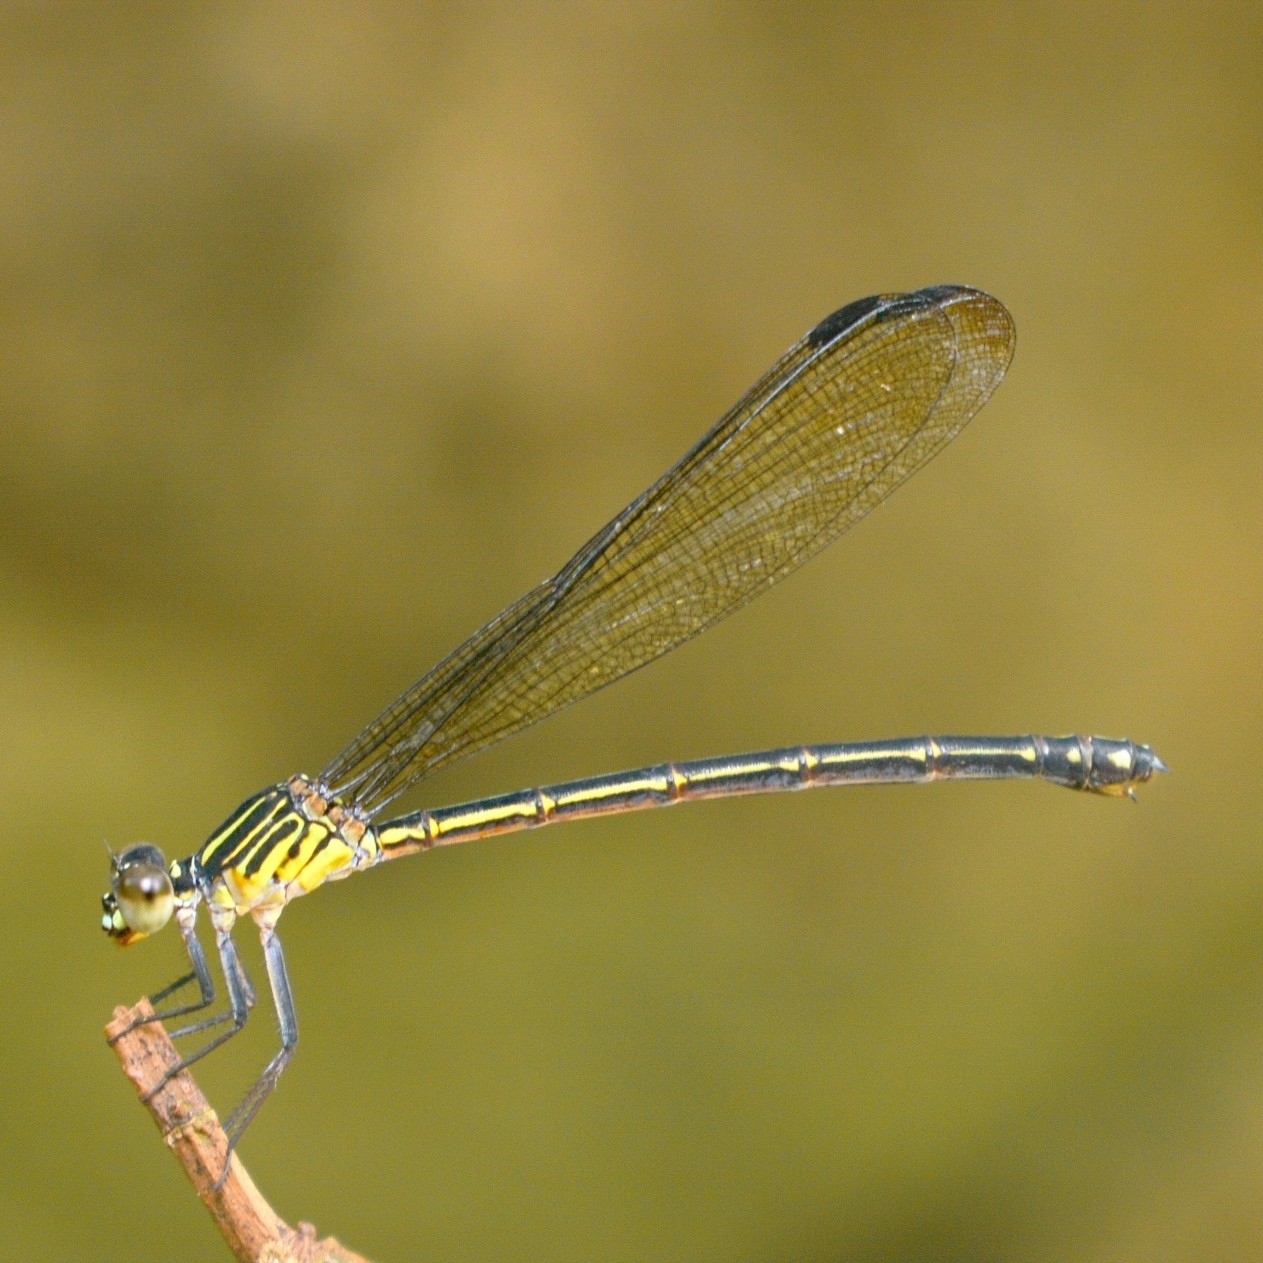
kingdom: Animalia
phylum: Arthropoda
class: Insecta
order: Odonata
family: Euphaeidae
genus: Euphaea
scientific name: Euphaea fraseri
